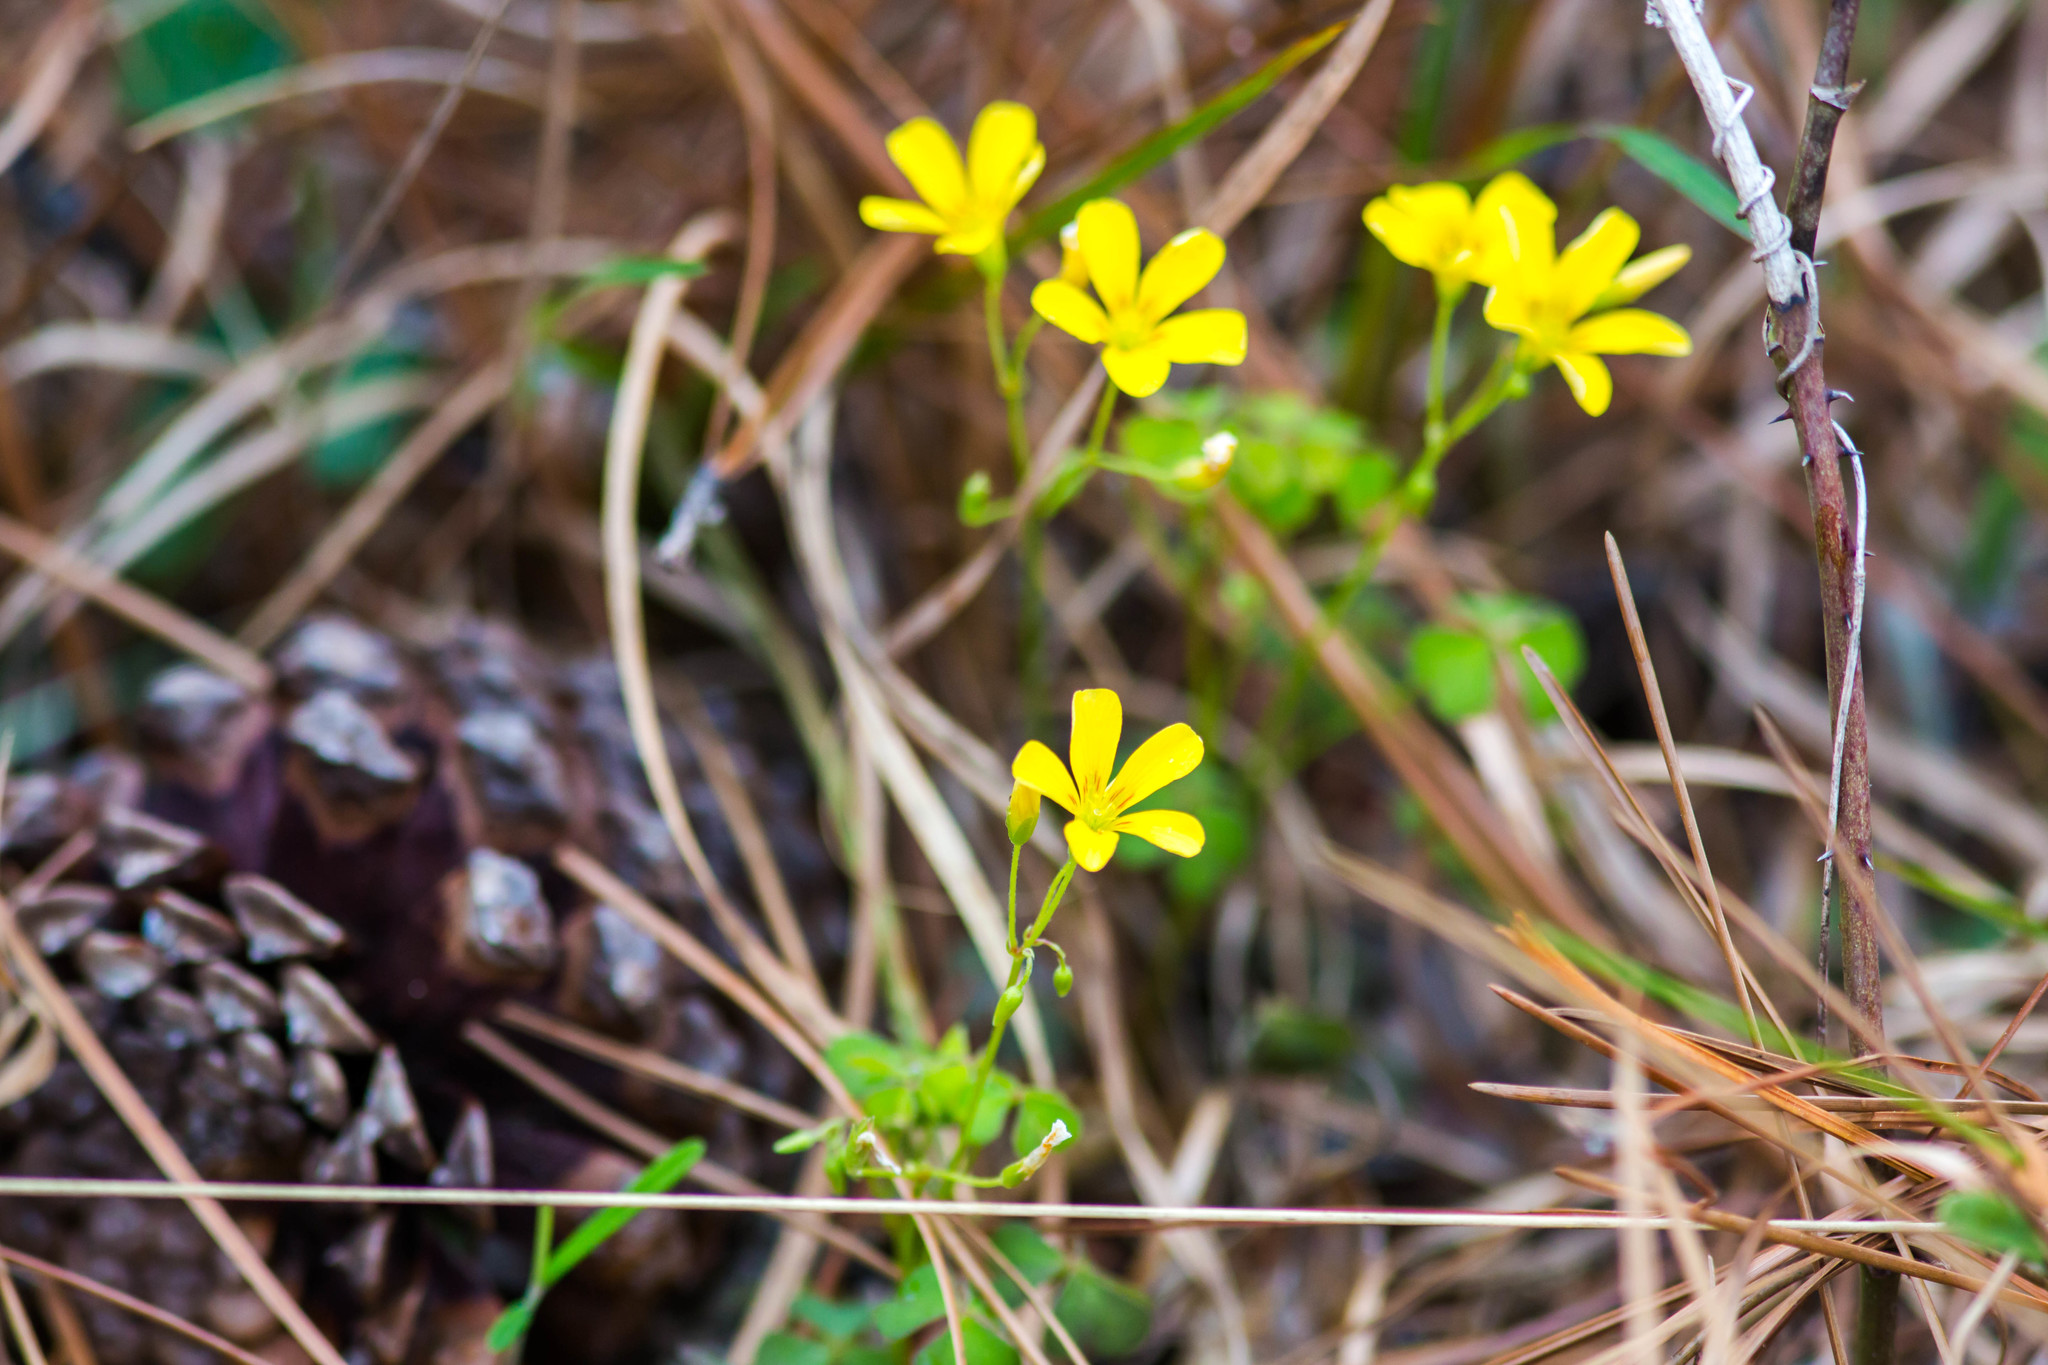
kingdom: Plantae
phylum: Tracheophyta
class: Magnoliopsida
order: Oxalidales
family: Oxalidaceae
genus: Oxalis
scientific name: Oxalis colorea
